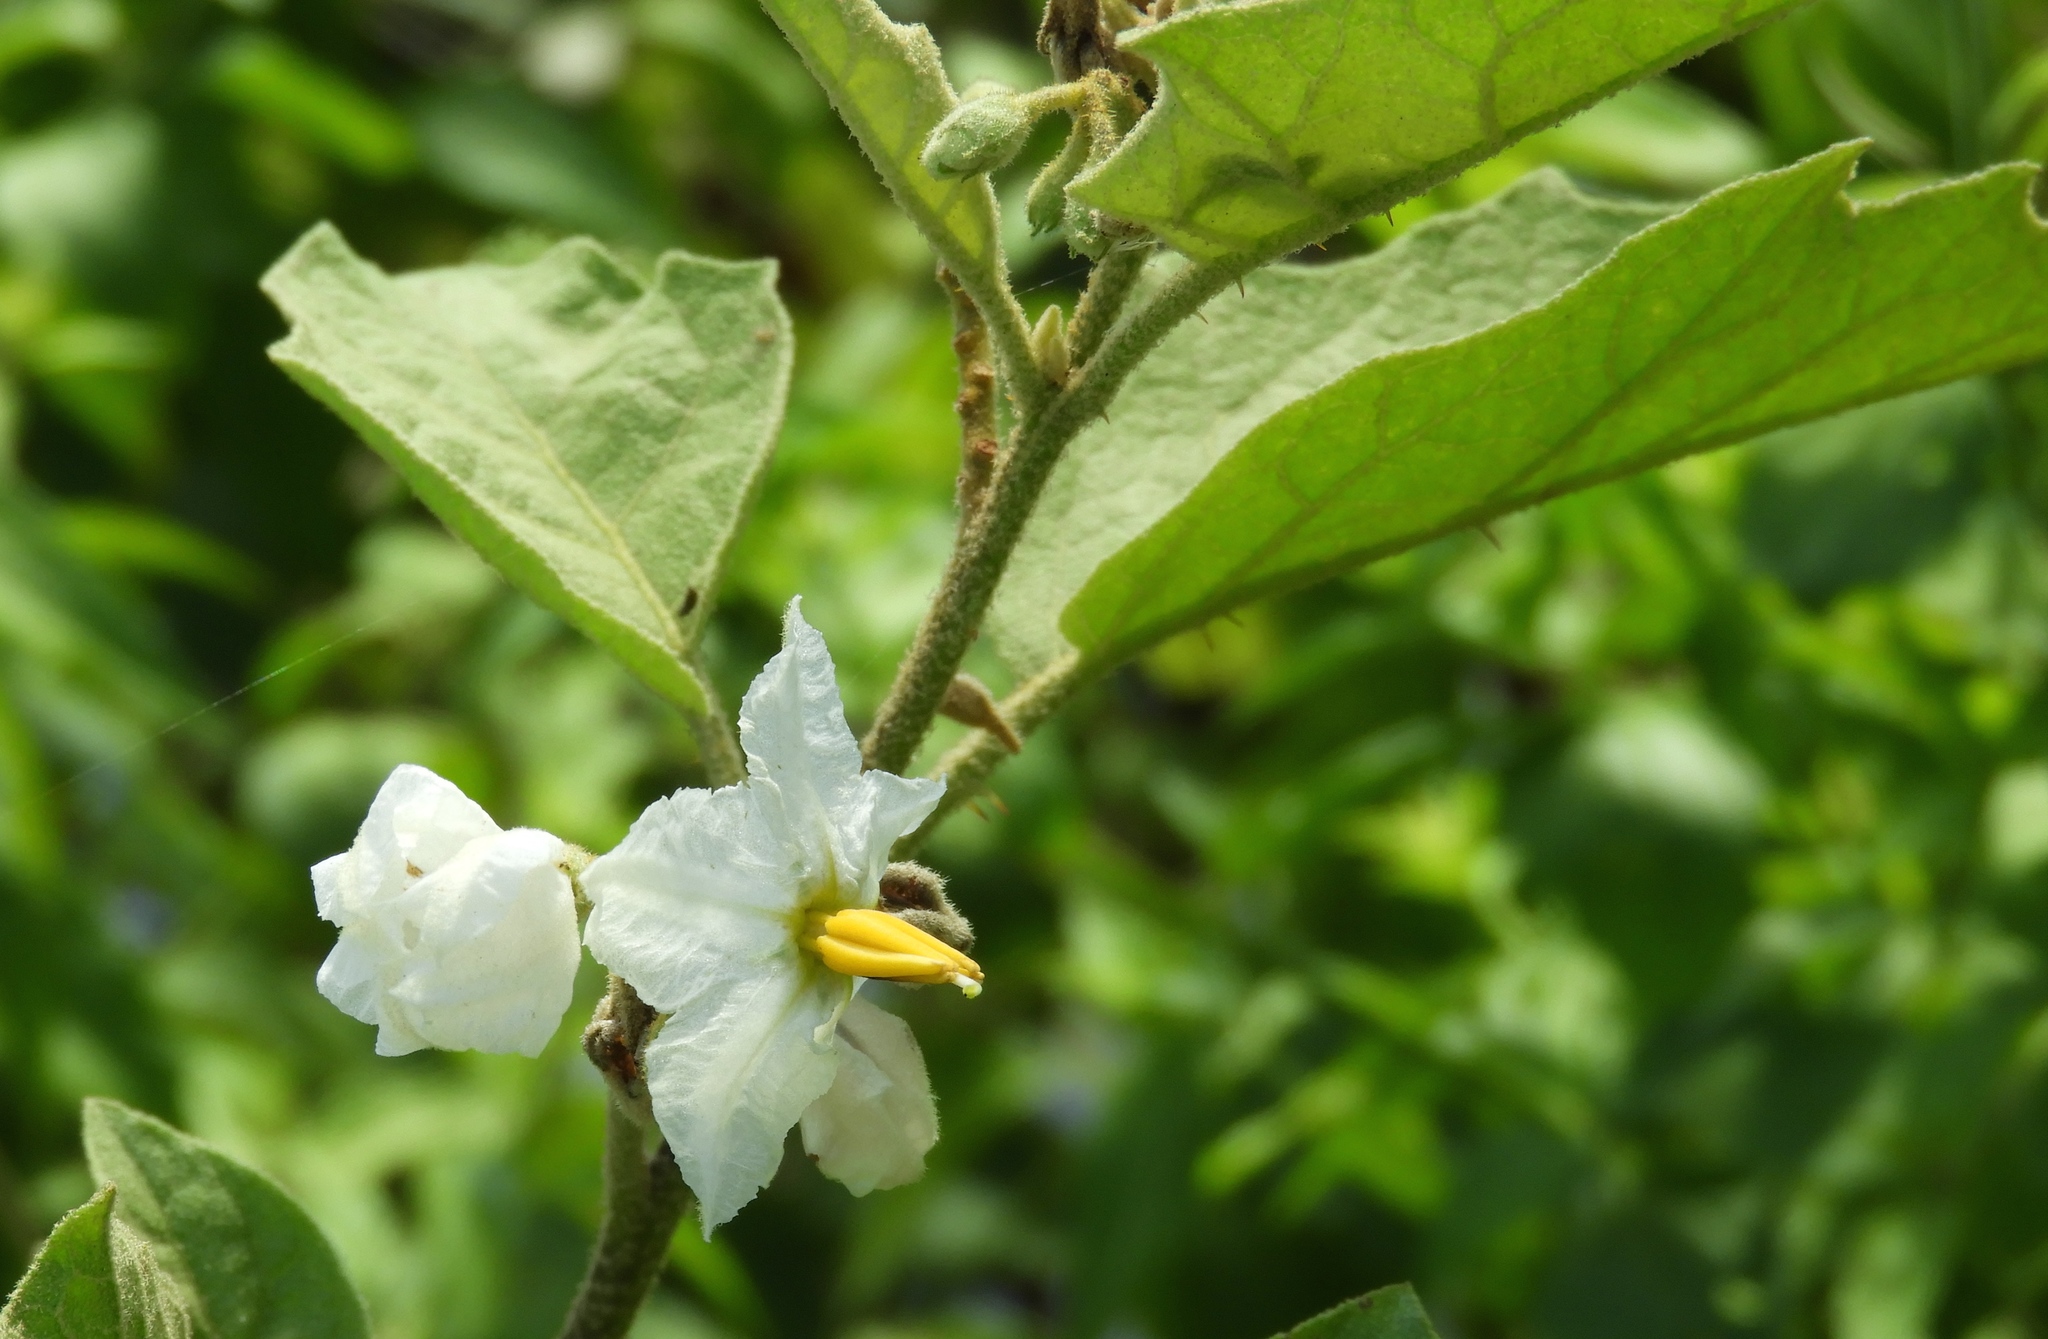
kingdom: Plantae
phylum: Tracheophyta
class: Magnoliopsida
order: Solanales
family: Solanaceae
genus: Solanum
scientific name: Solanum ferrugineum
